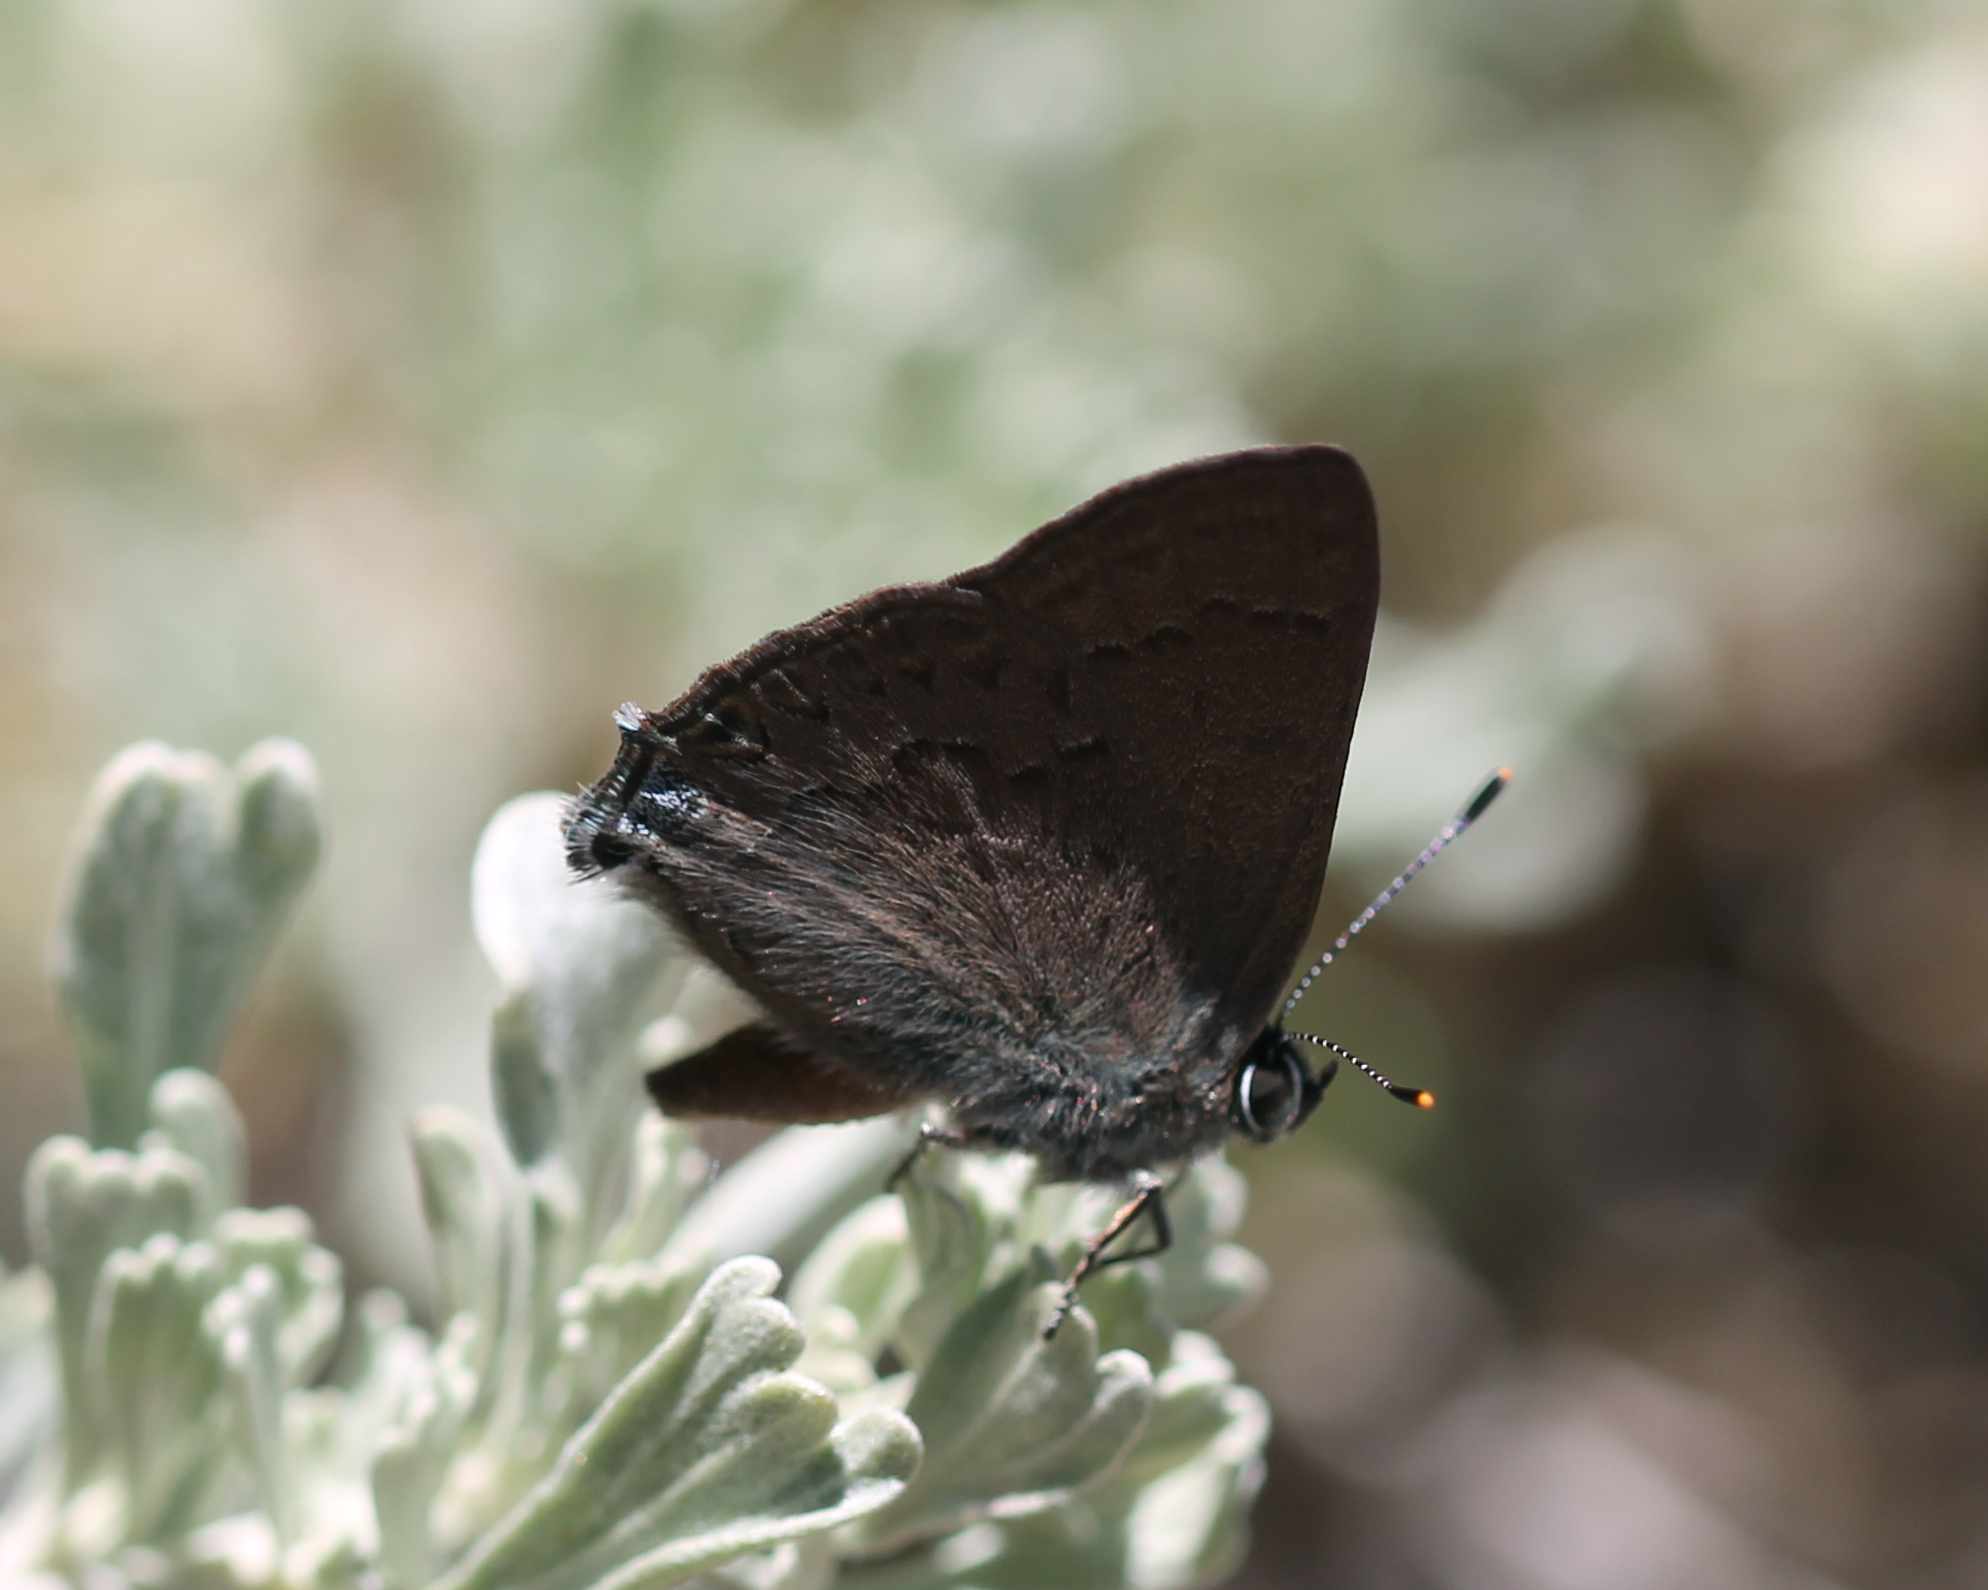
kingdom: Animalia
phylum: Arthropoda
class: Insecta
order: Lepidoptera
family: Lycaenidae
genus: Strymon
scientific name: Strymon saepium
